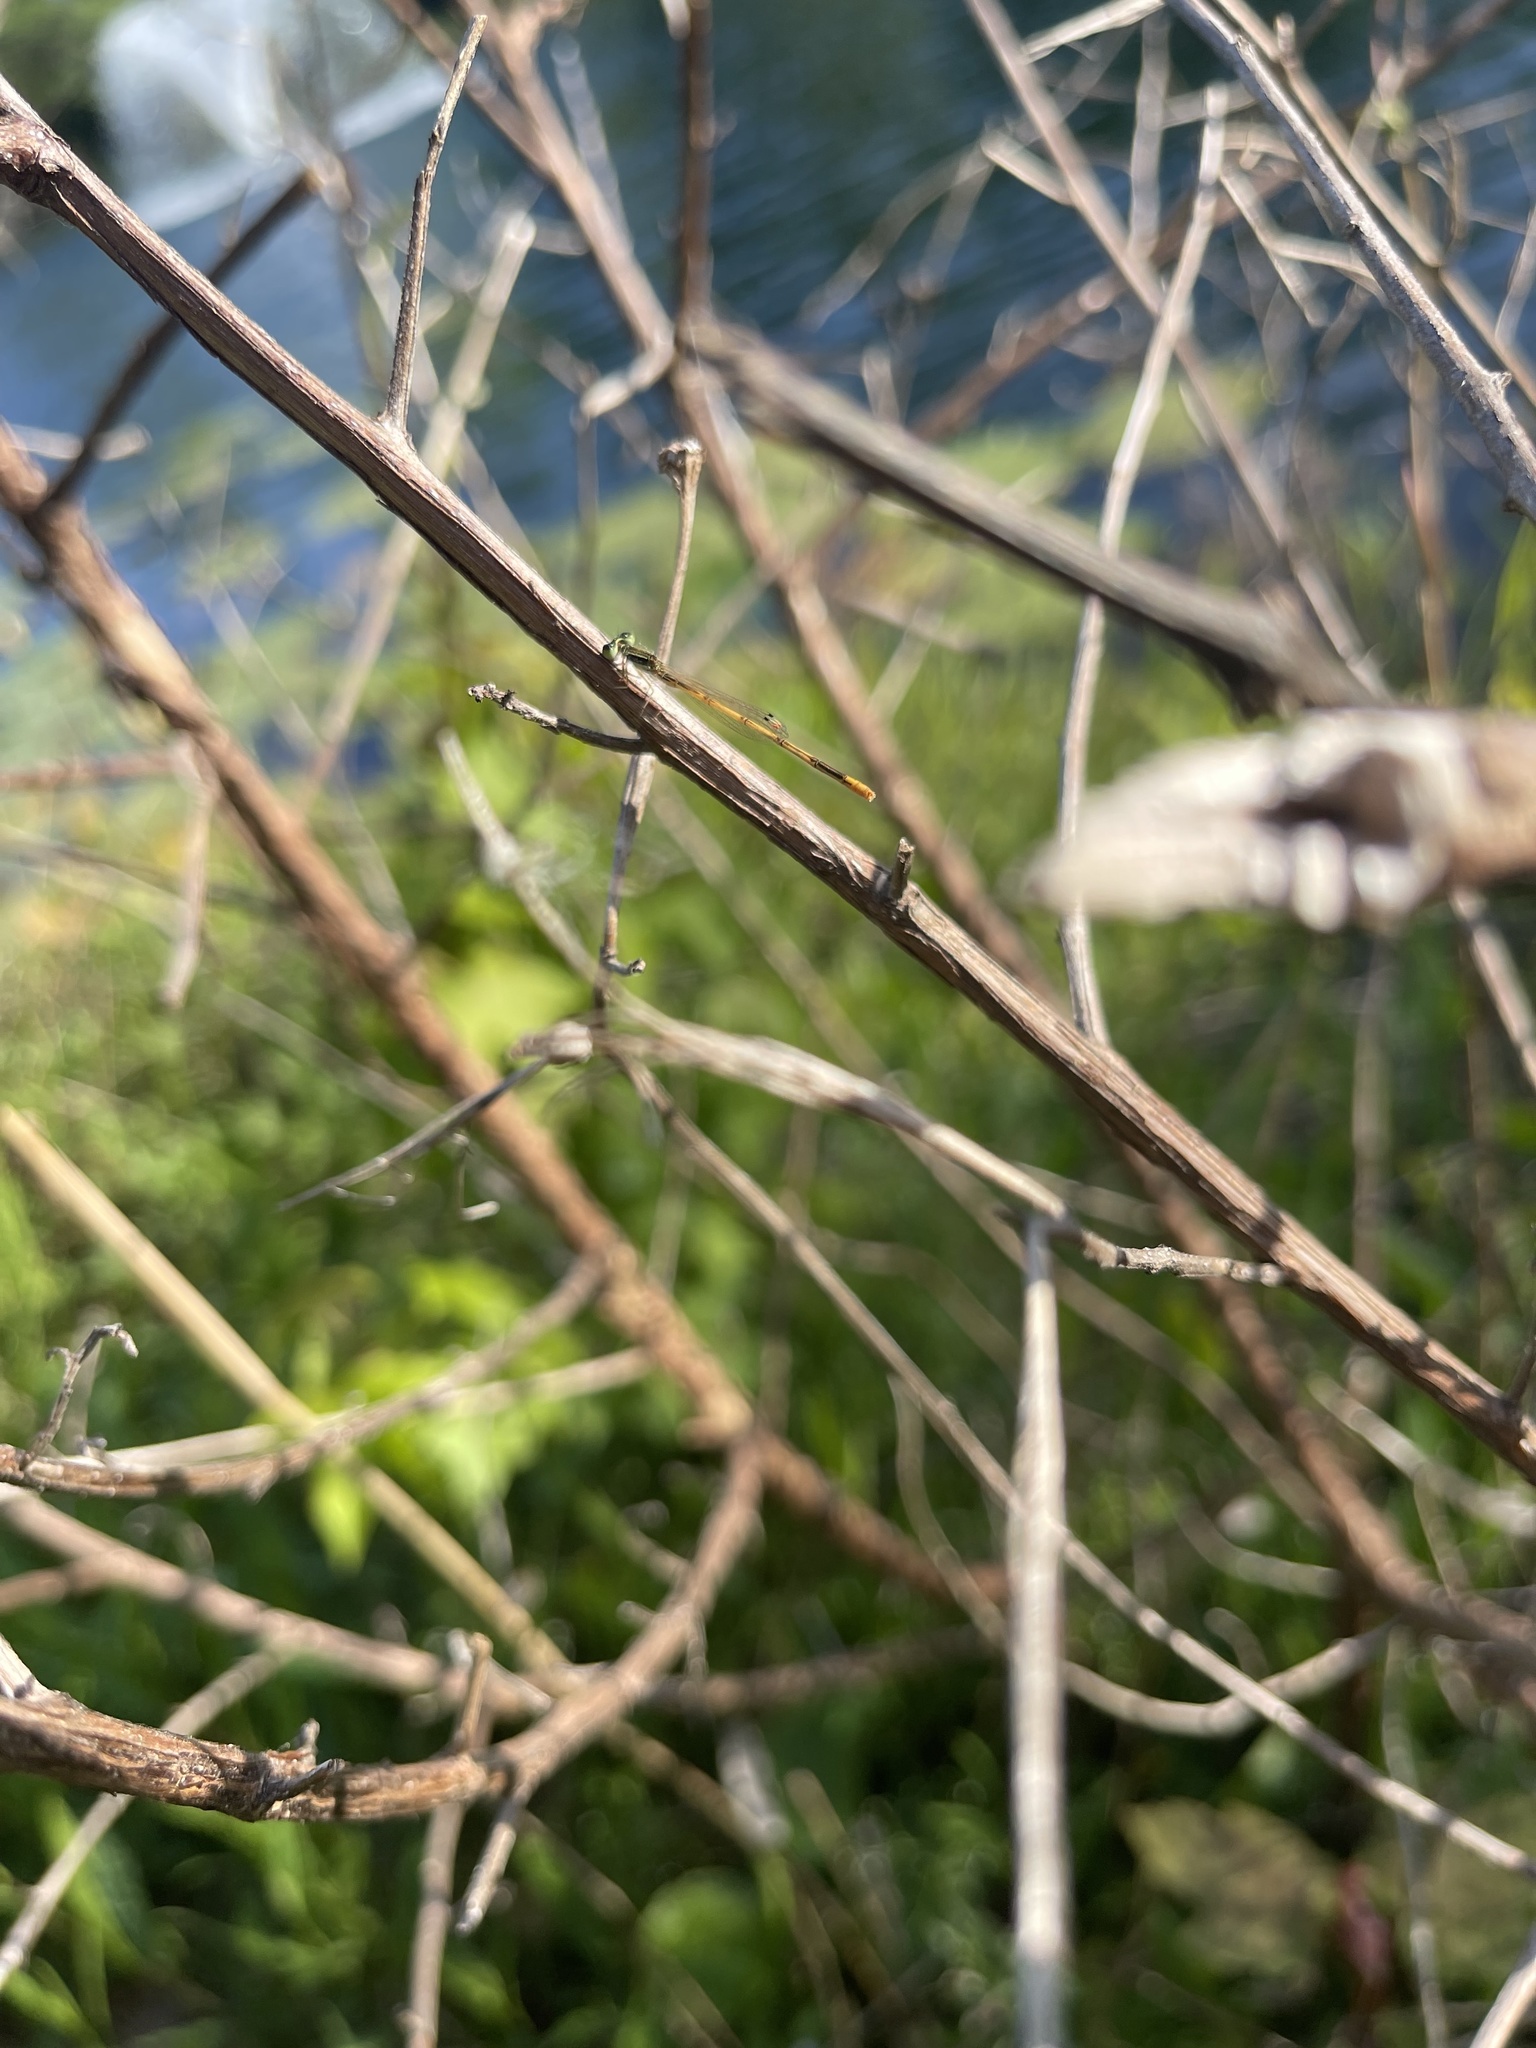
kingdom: Animalia
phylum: Arthropoda
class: Insecta
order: Odonata
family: Coenagrionidae
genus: Ischnura
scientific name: Ischnura hastata
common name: Citrine forktail
